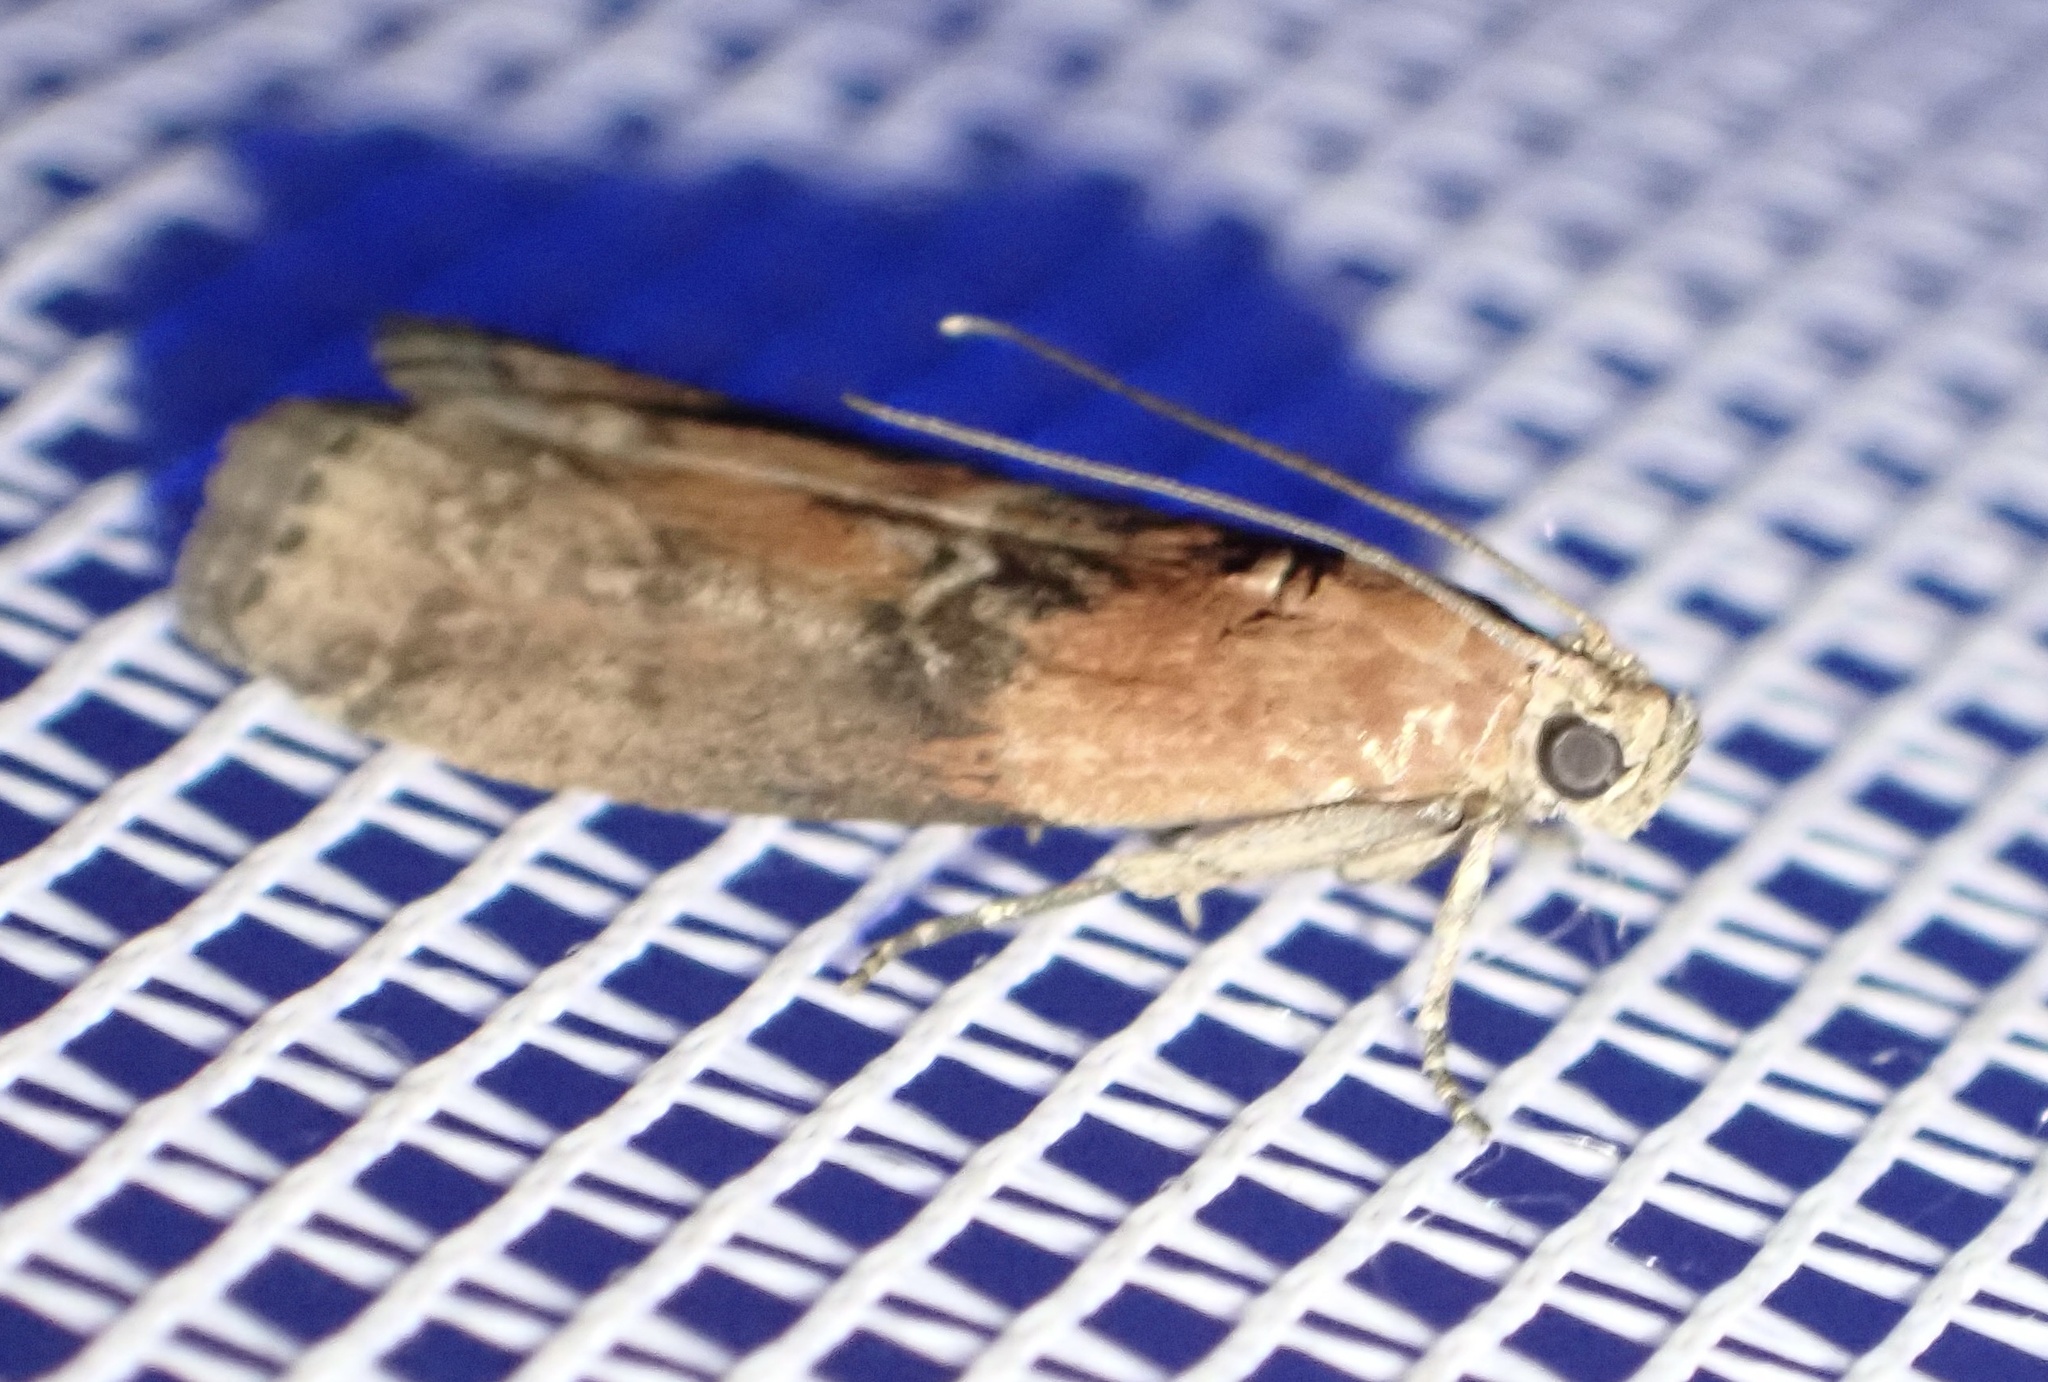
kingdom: Animalia
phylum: Arthropoda
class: Insecta
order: Lepidoptera
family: Pyralidae
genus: Sciota
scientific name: Sciota adelphella
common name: Willow knot-horn
